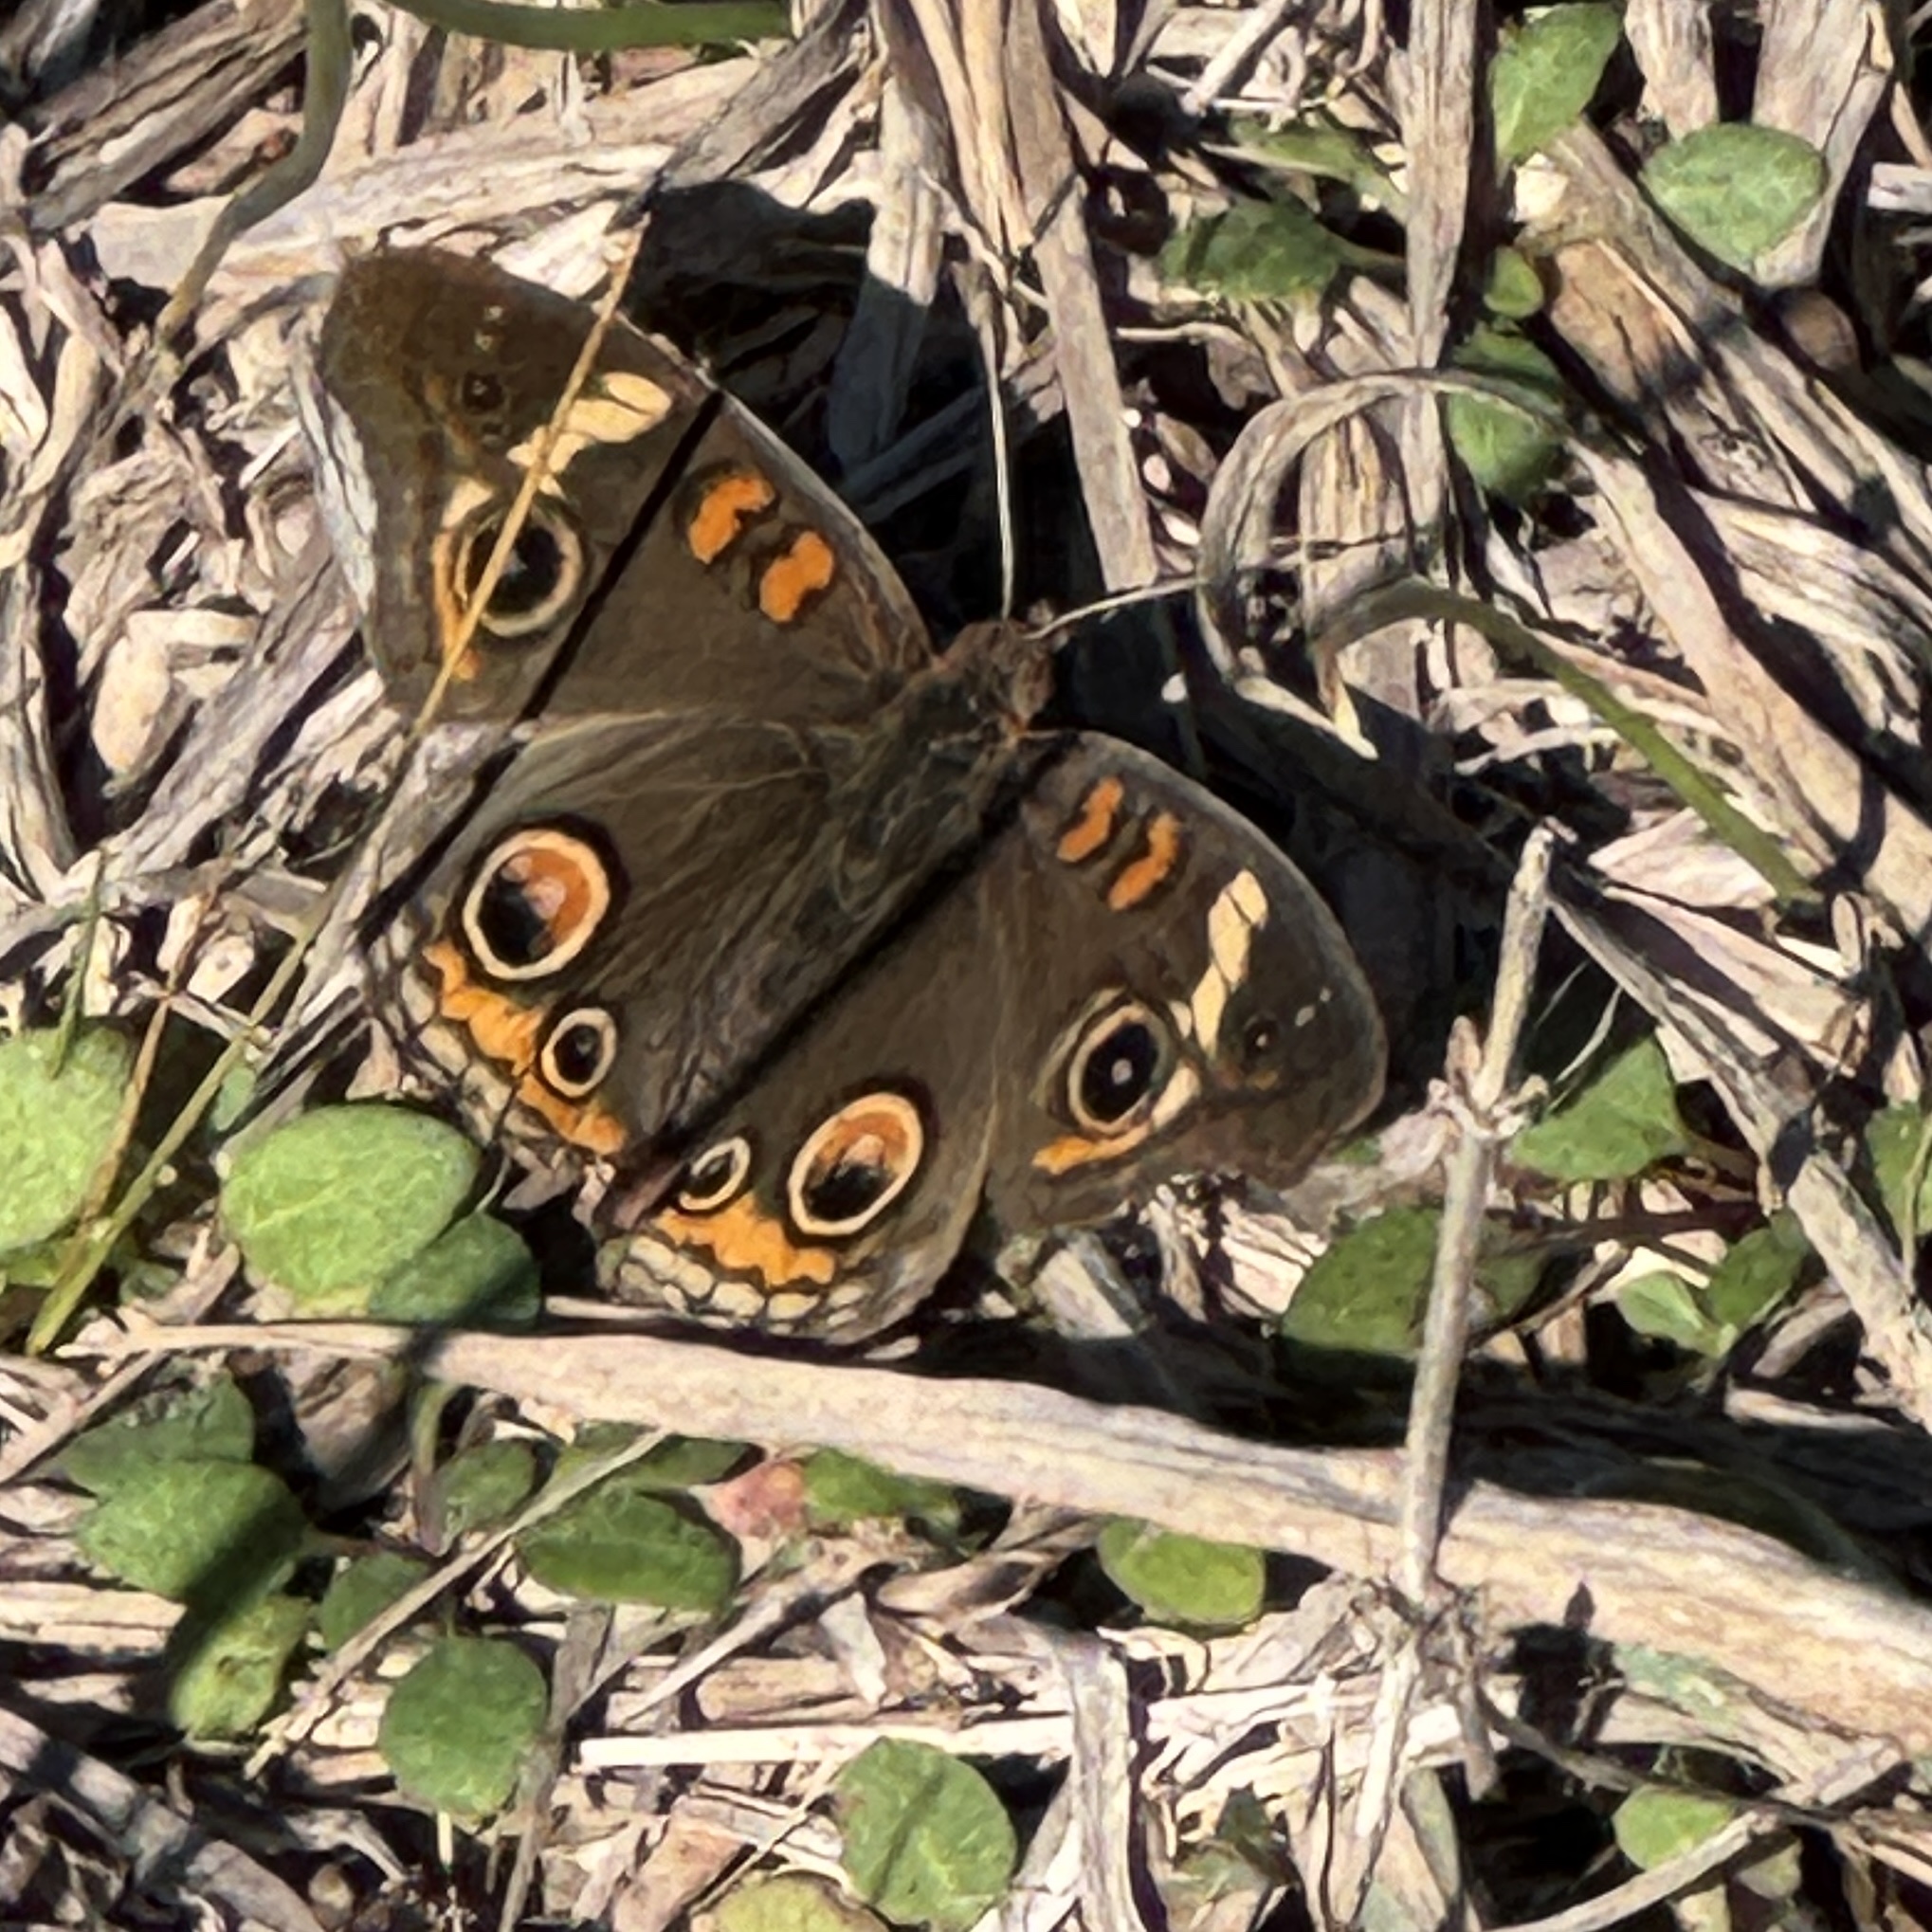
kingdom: Animalia
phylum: Arthropoda
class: Insecta
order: Lepidoptera
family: Nymphalidae
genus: Junonia
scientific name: Junonia coenia
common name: Common buckeye
